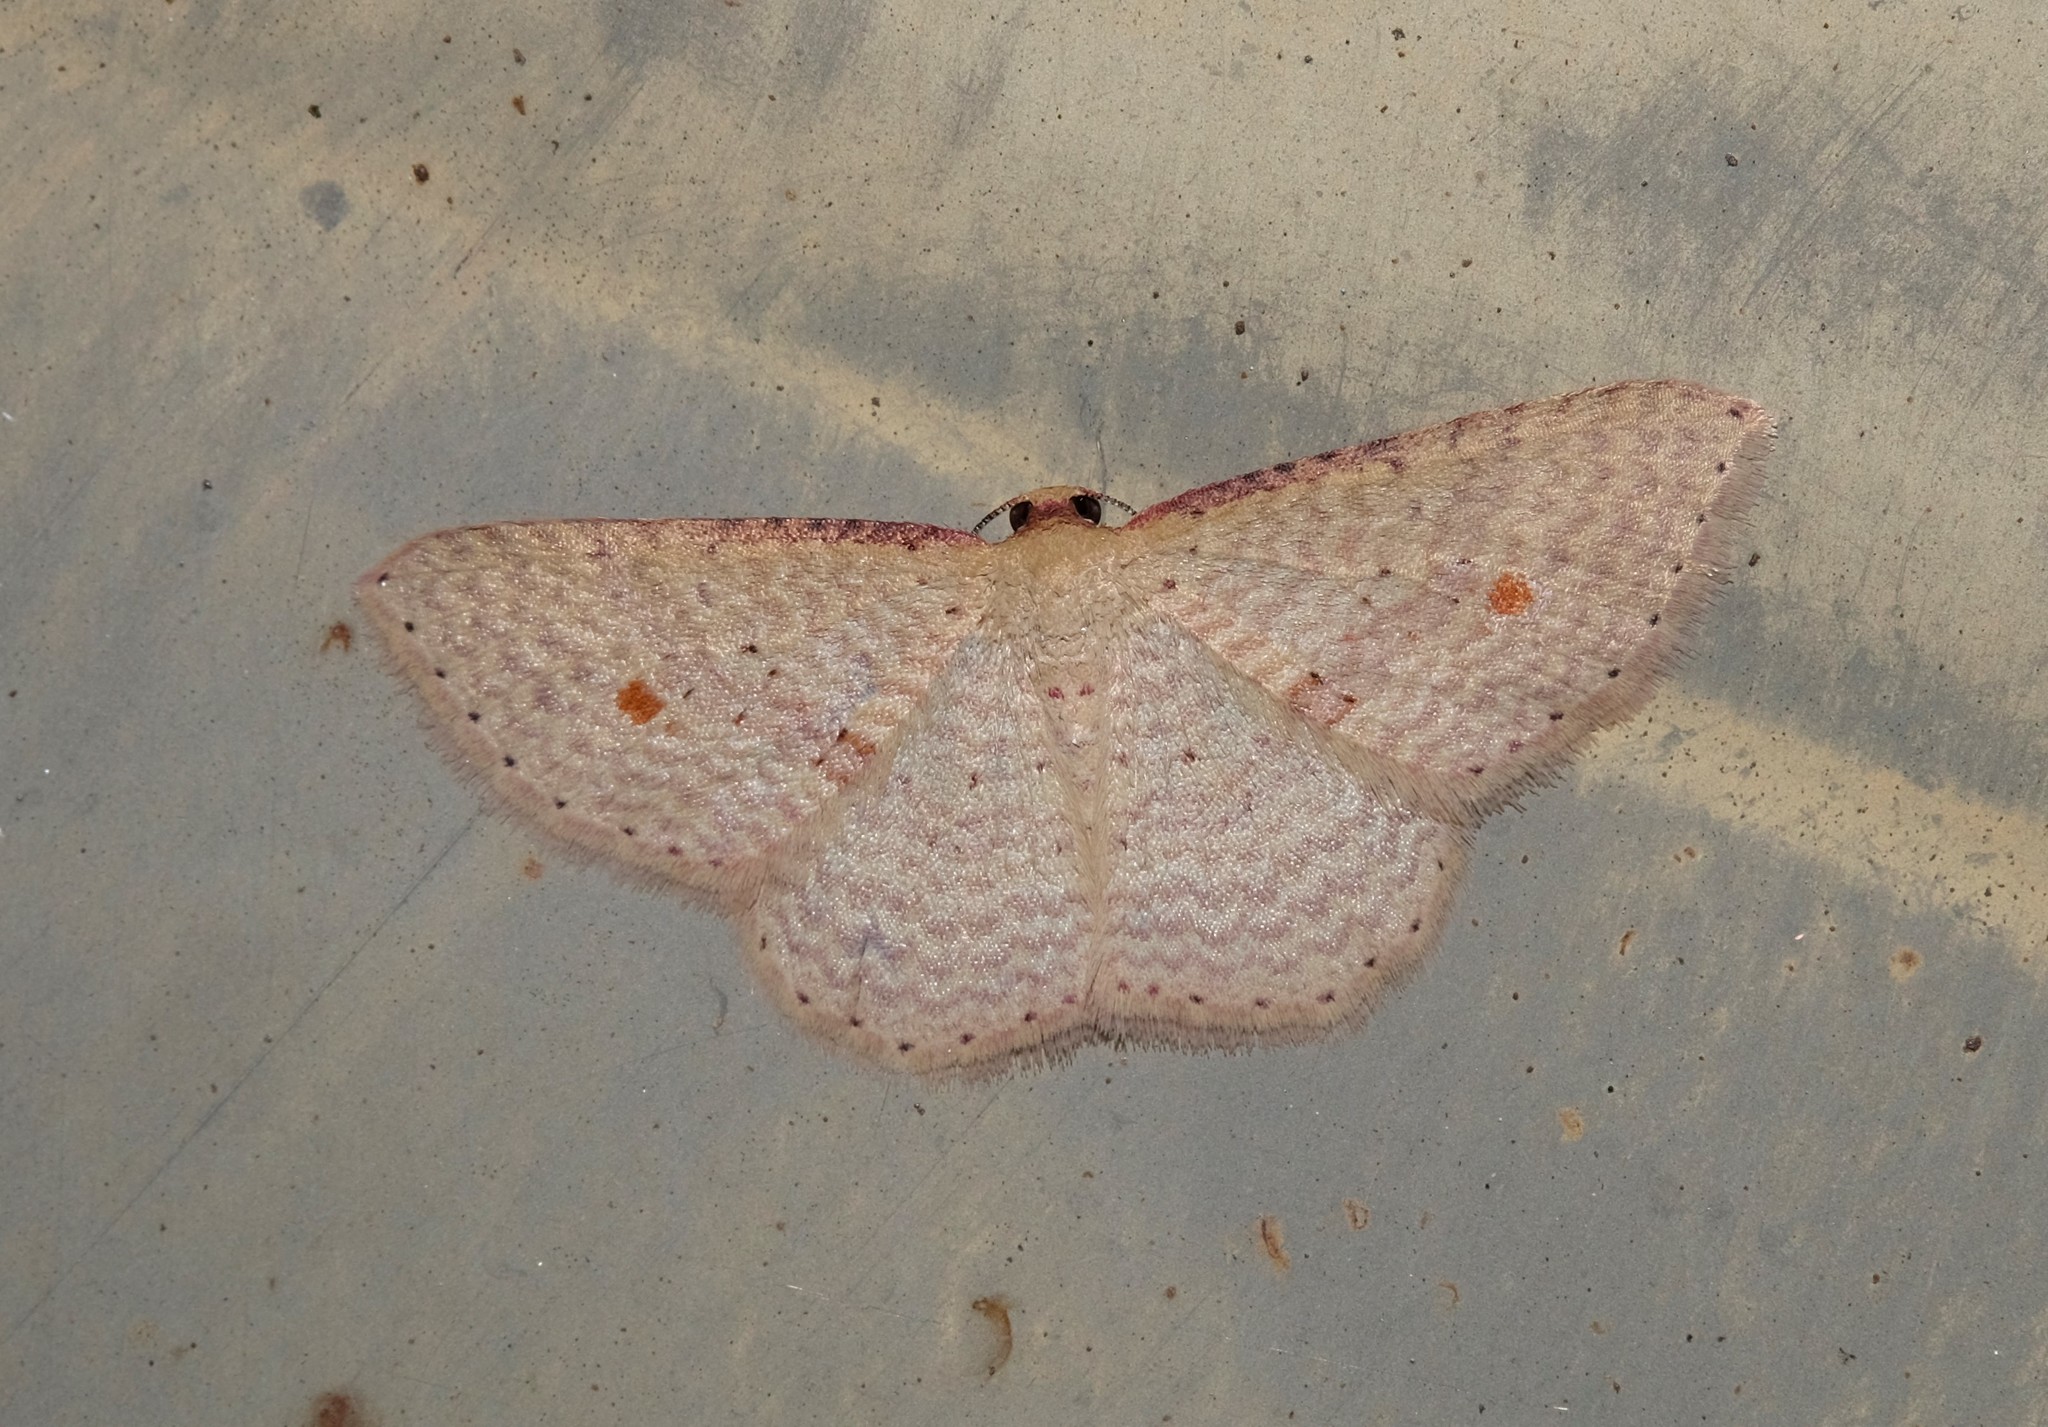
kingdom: Animalia
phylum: Arthropoda
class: Insecta
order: Lepidoptera
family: Geometridae
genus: Epicyme
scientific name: Epicyme rubropunctaria
